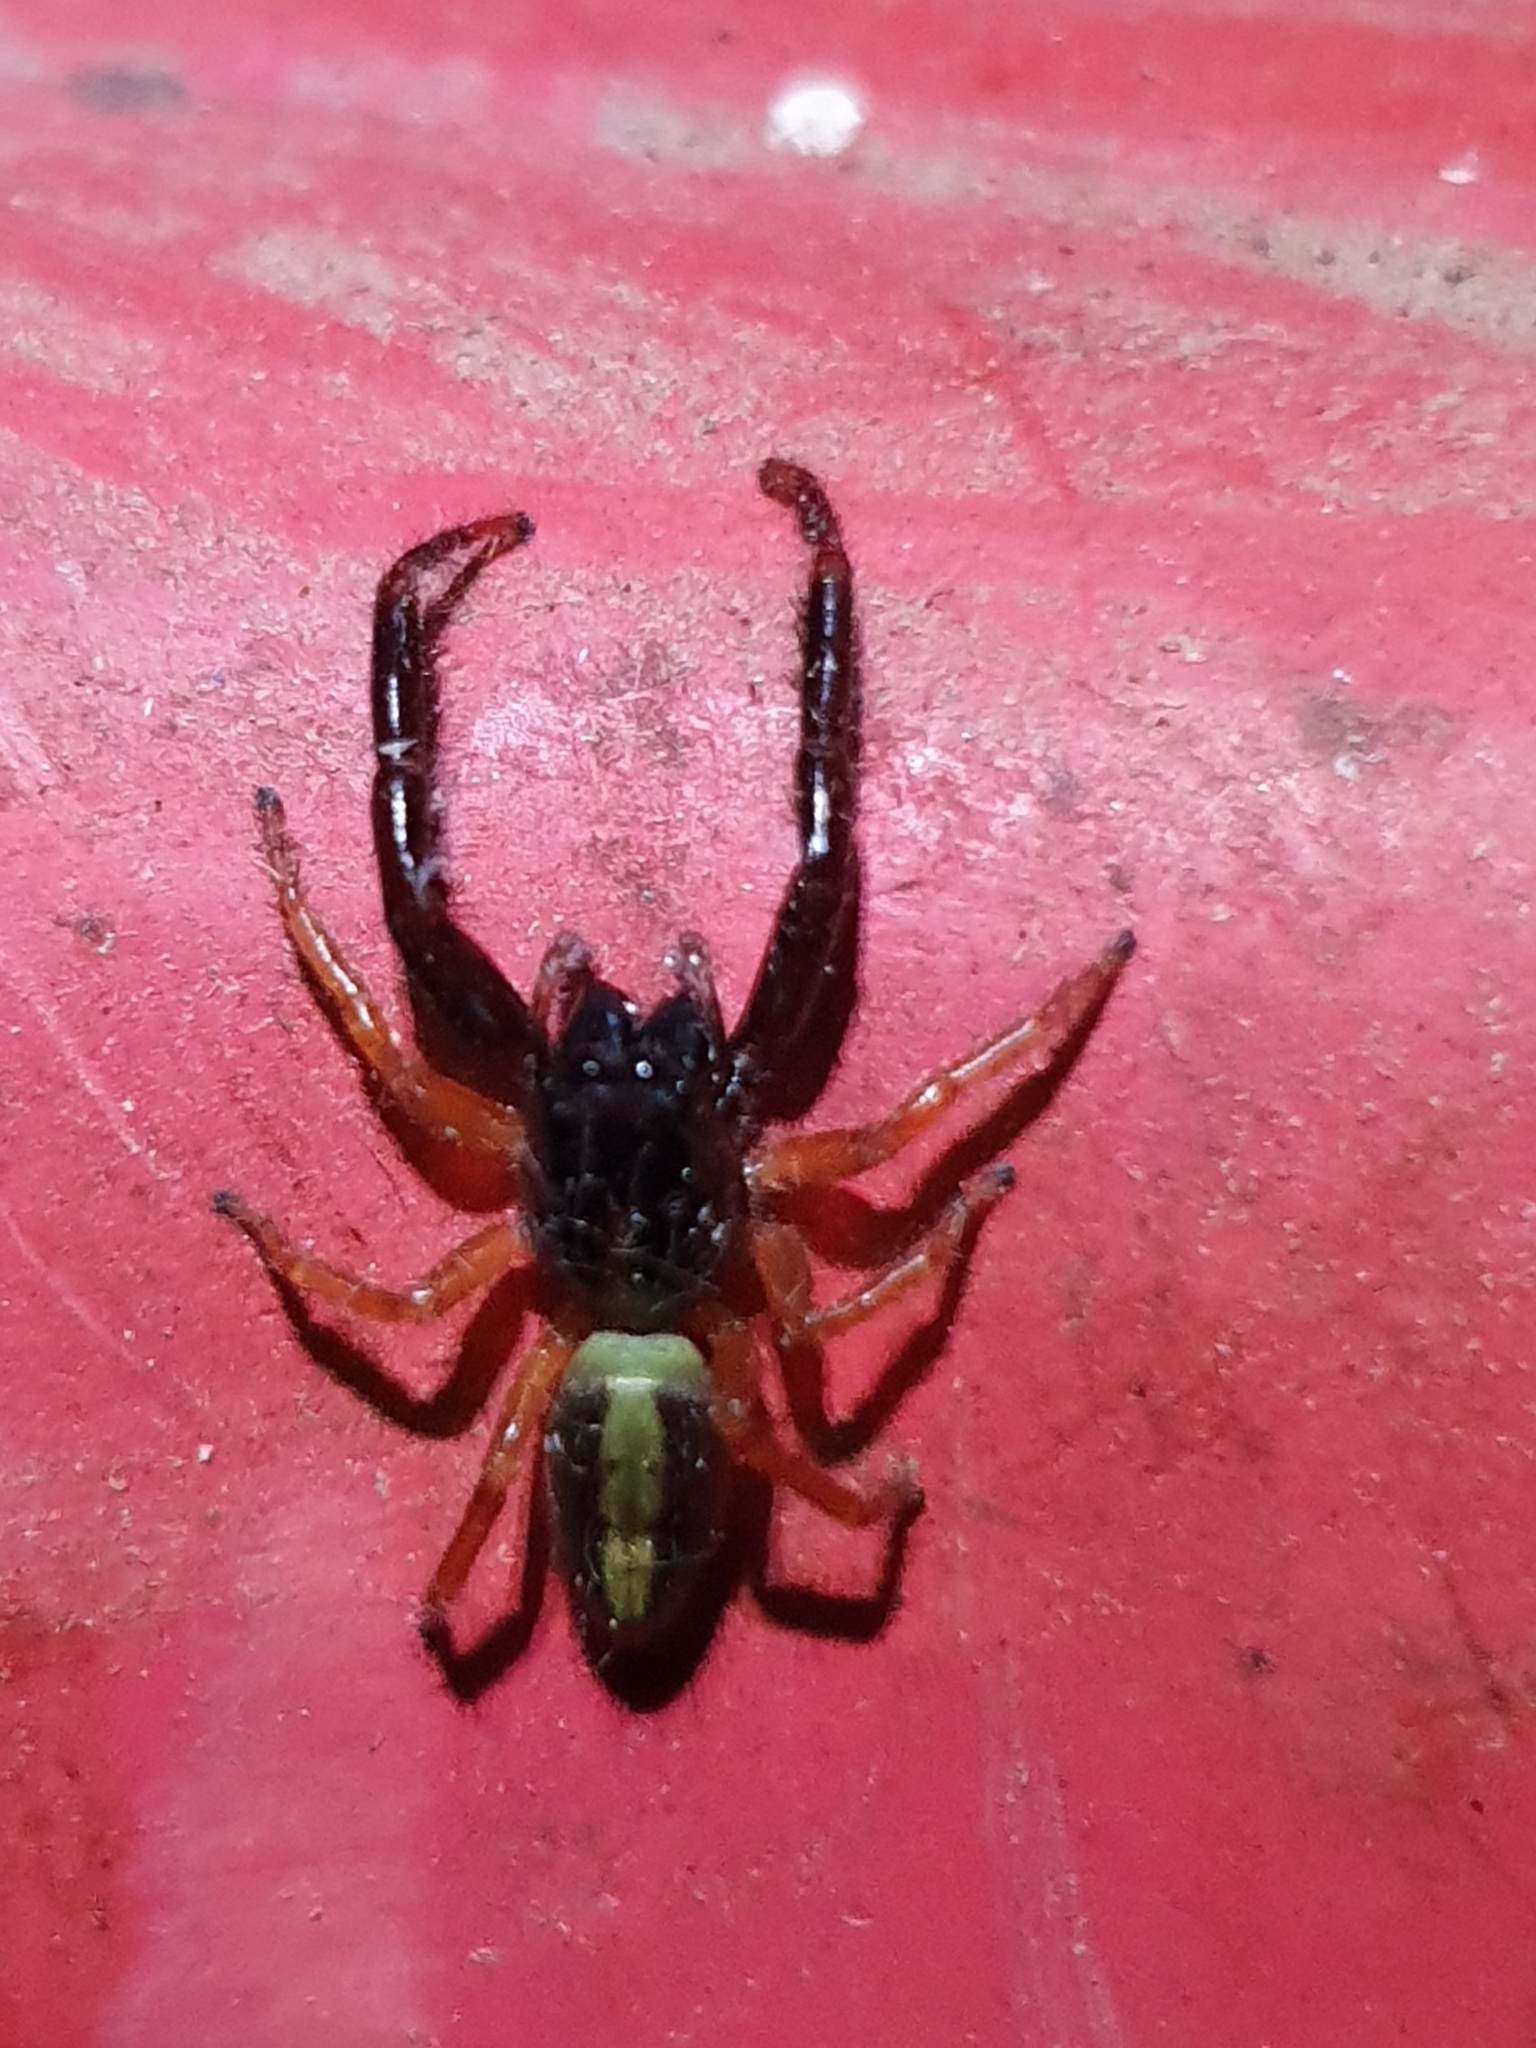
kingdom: Animalia
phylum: Arthropoda
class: Arachnida
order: Araneae
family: Salticidae
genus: Trite
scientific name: Trite planiceps
